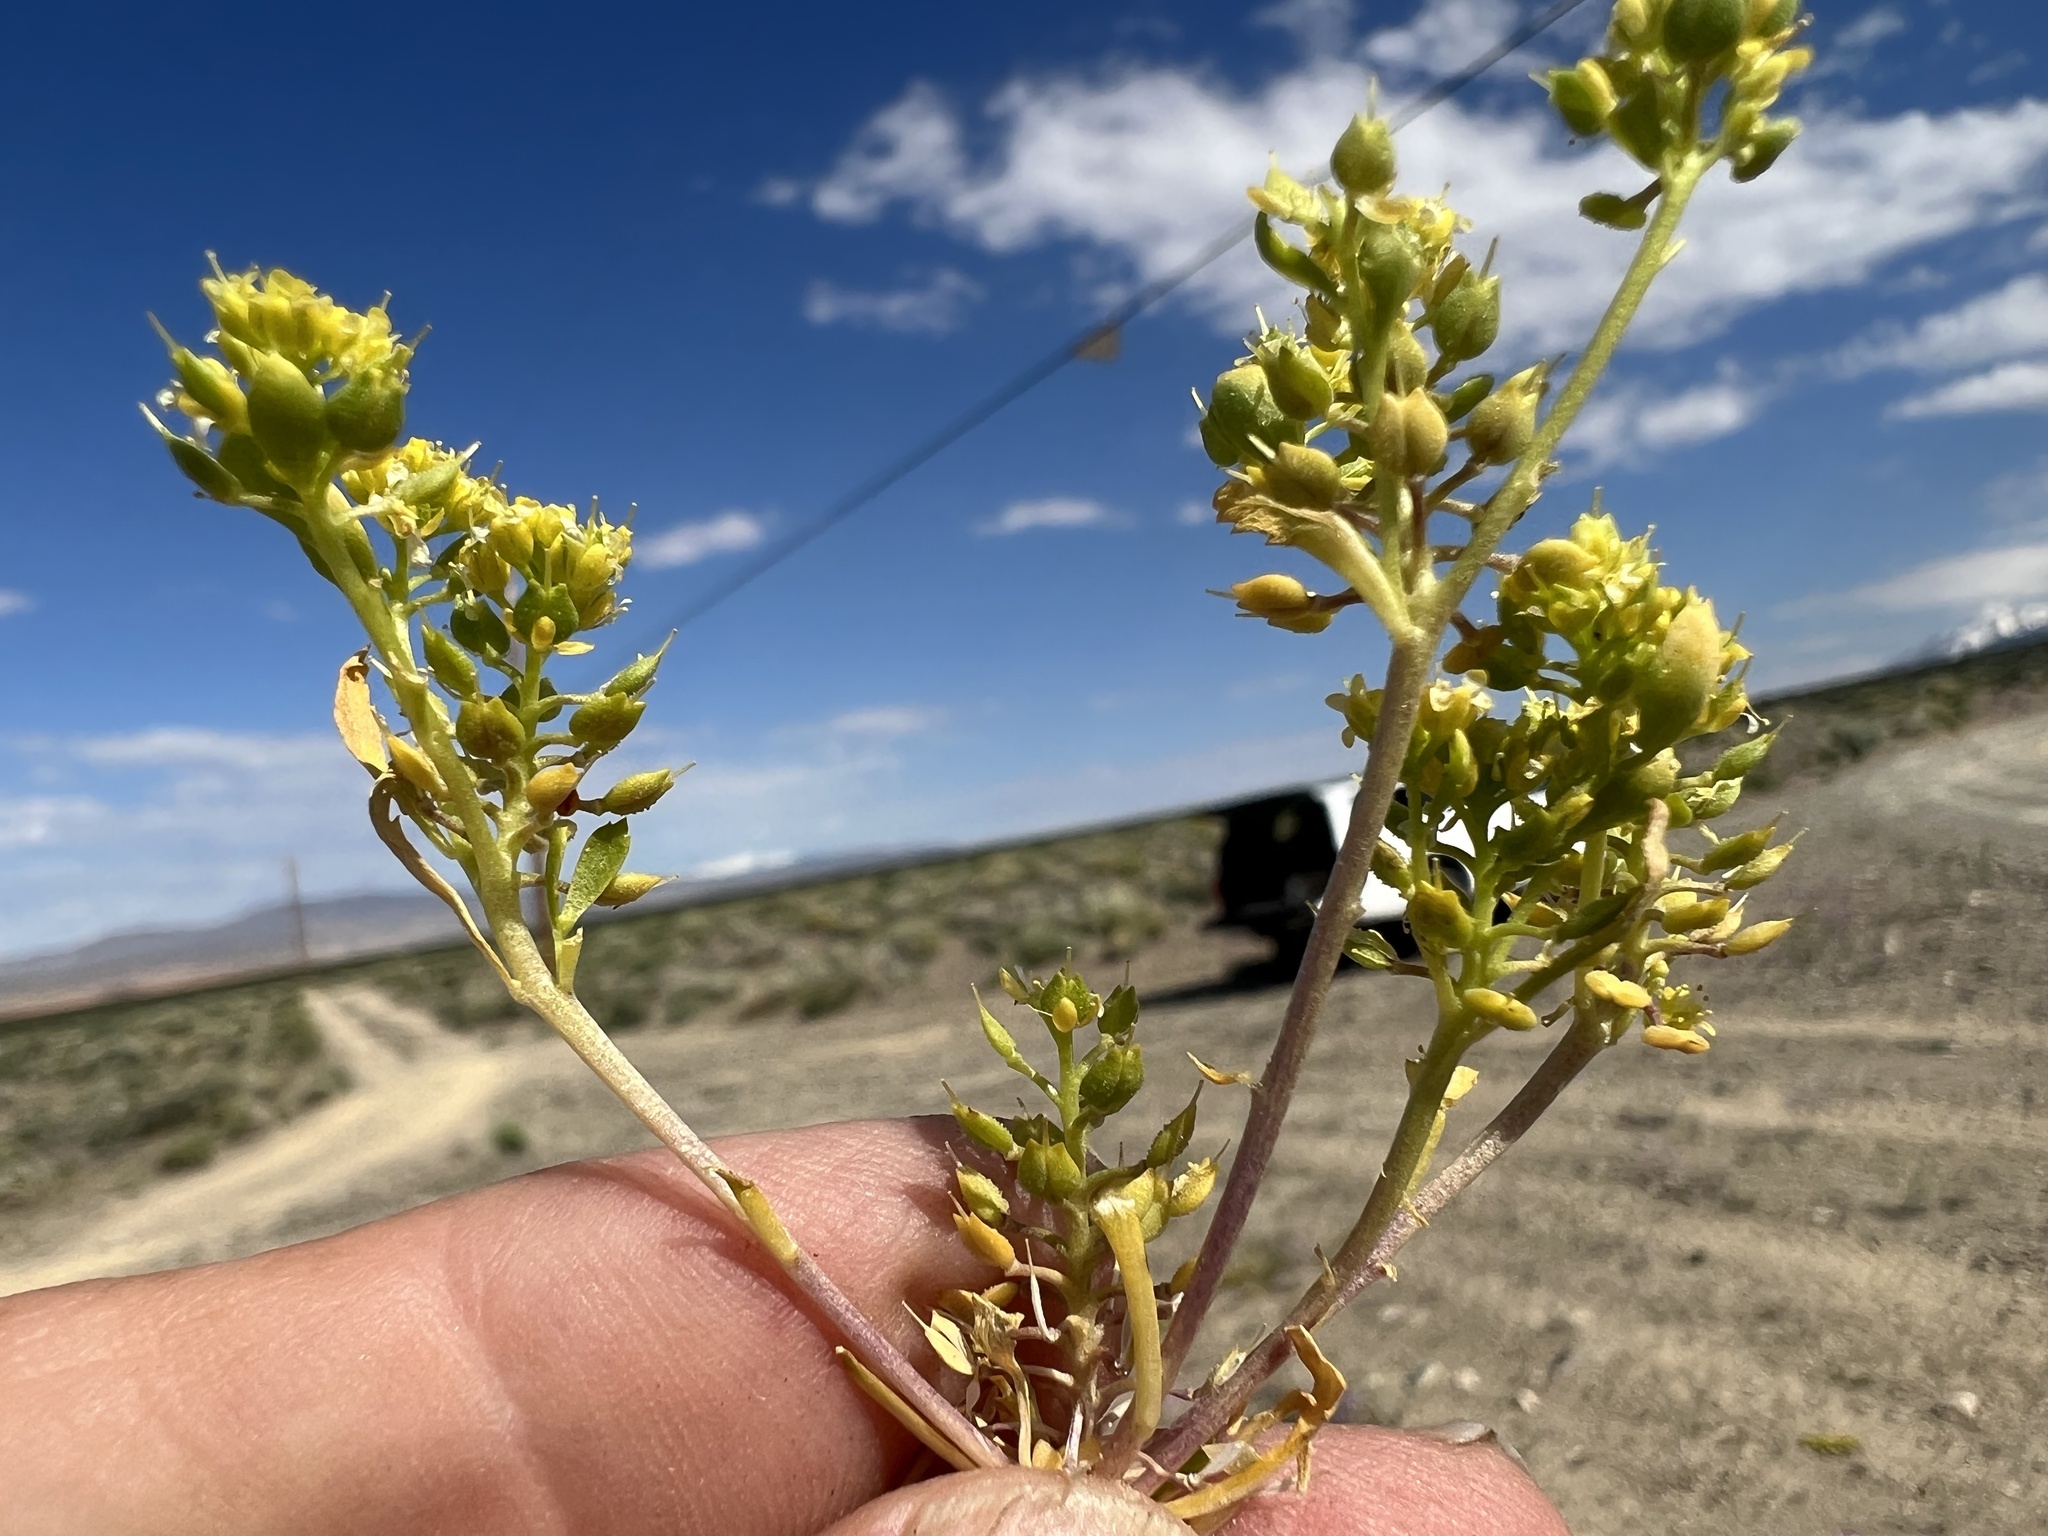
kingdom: Plantae
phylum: Tracheophyta
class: Magnoliopsida
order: Brassicales
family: Brassicaceae
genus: Lepidium
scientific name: Lepidium flavum
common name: Yellow pepperwort
